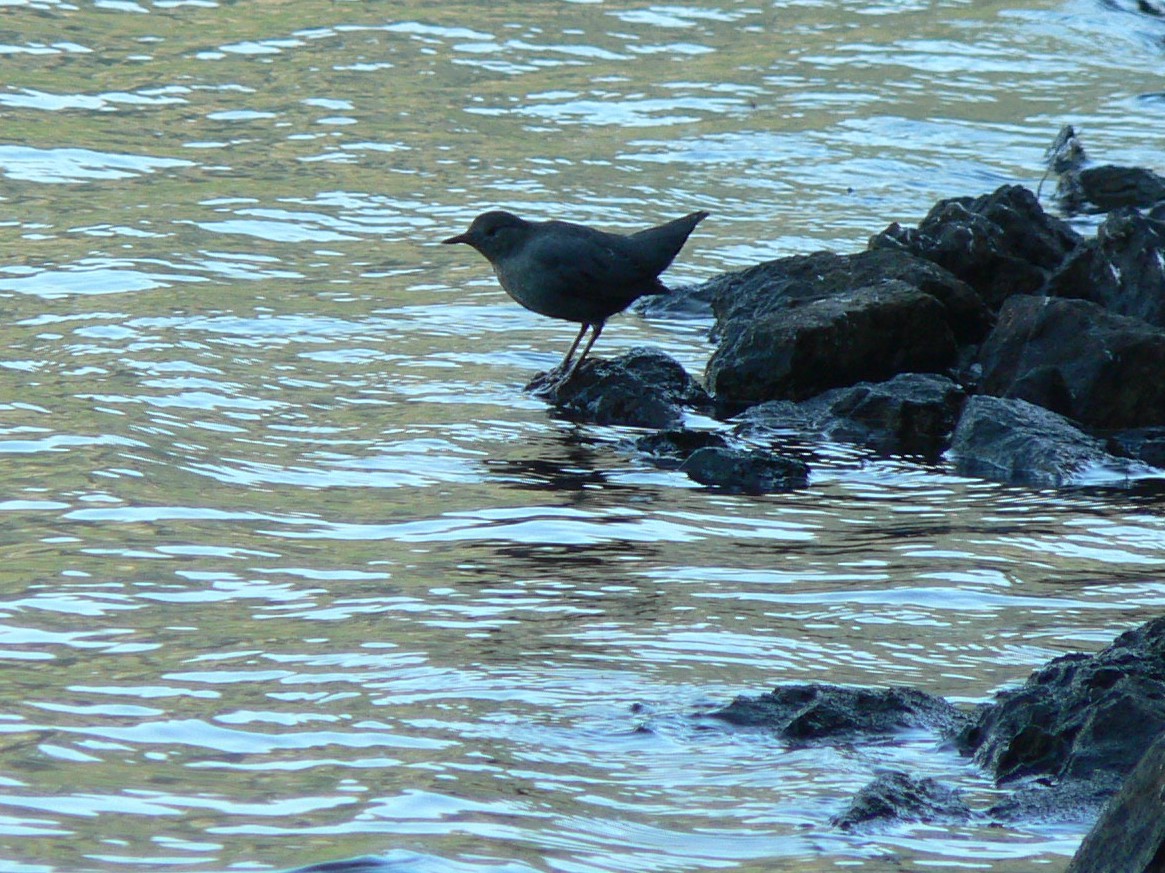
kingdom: Animalia
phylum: Chordata
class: Aves
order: Passeriformes
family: Cinclidae
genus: Cinclus
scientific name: Cinclus mexicanus
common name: American dipper
